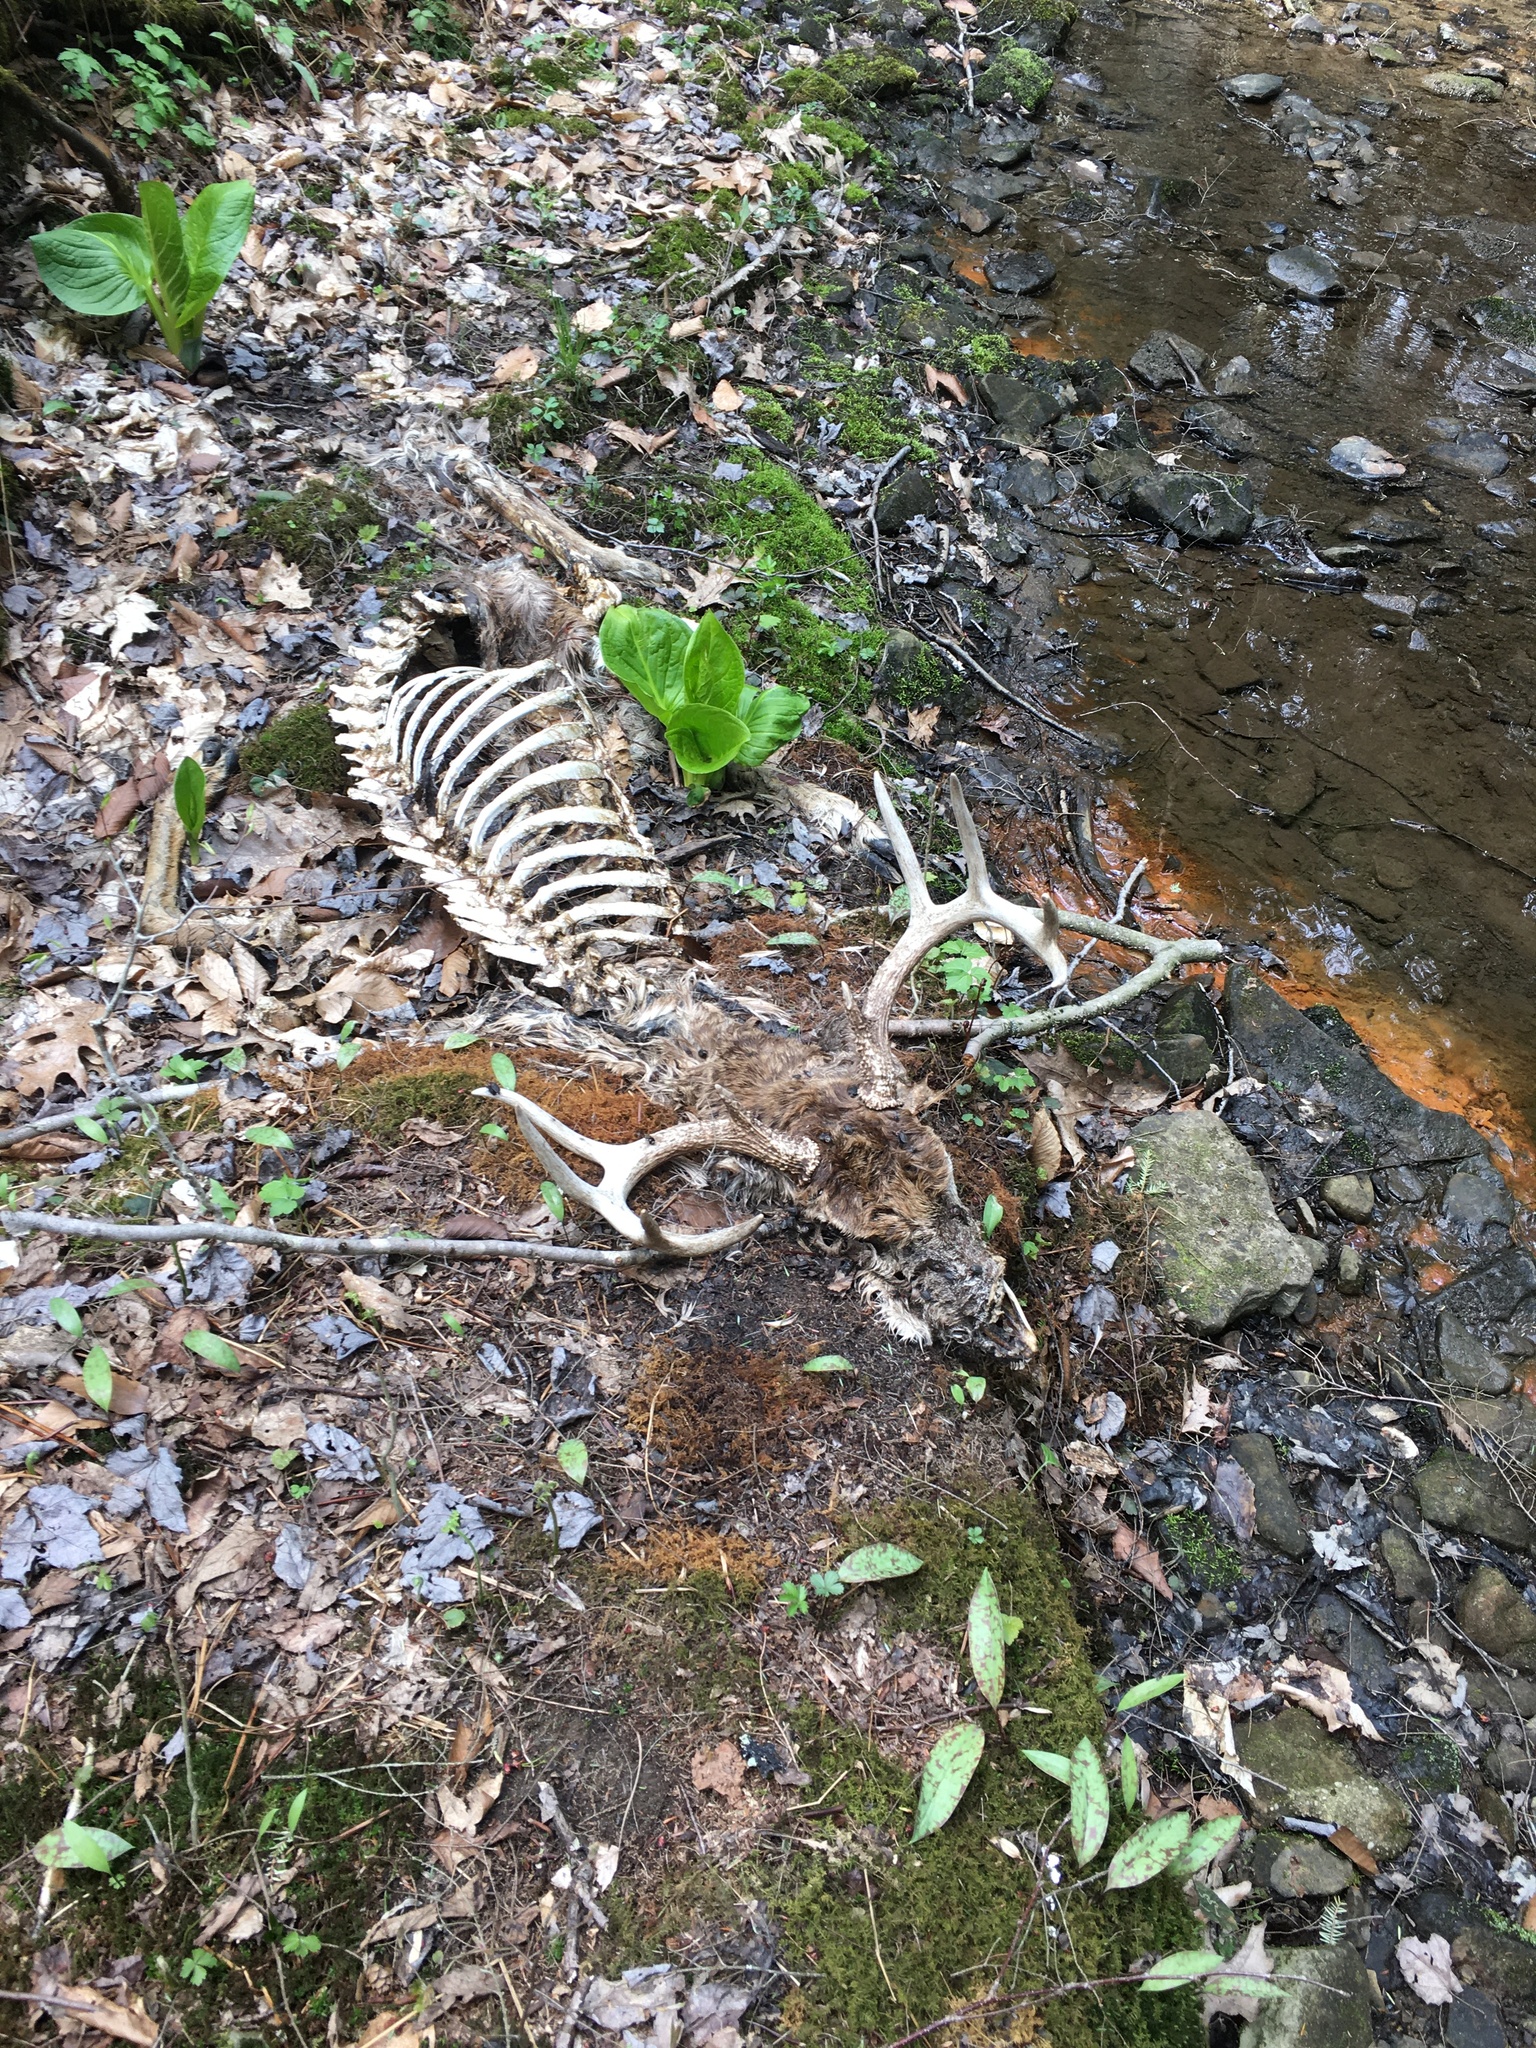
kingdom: Animalia
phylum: Chordata
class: Mammalia
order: Artiodactyla
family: Cervidae
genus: Odocoileus
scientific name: Odocoileus virginianus
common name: White-tailed deer
